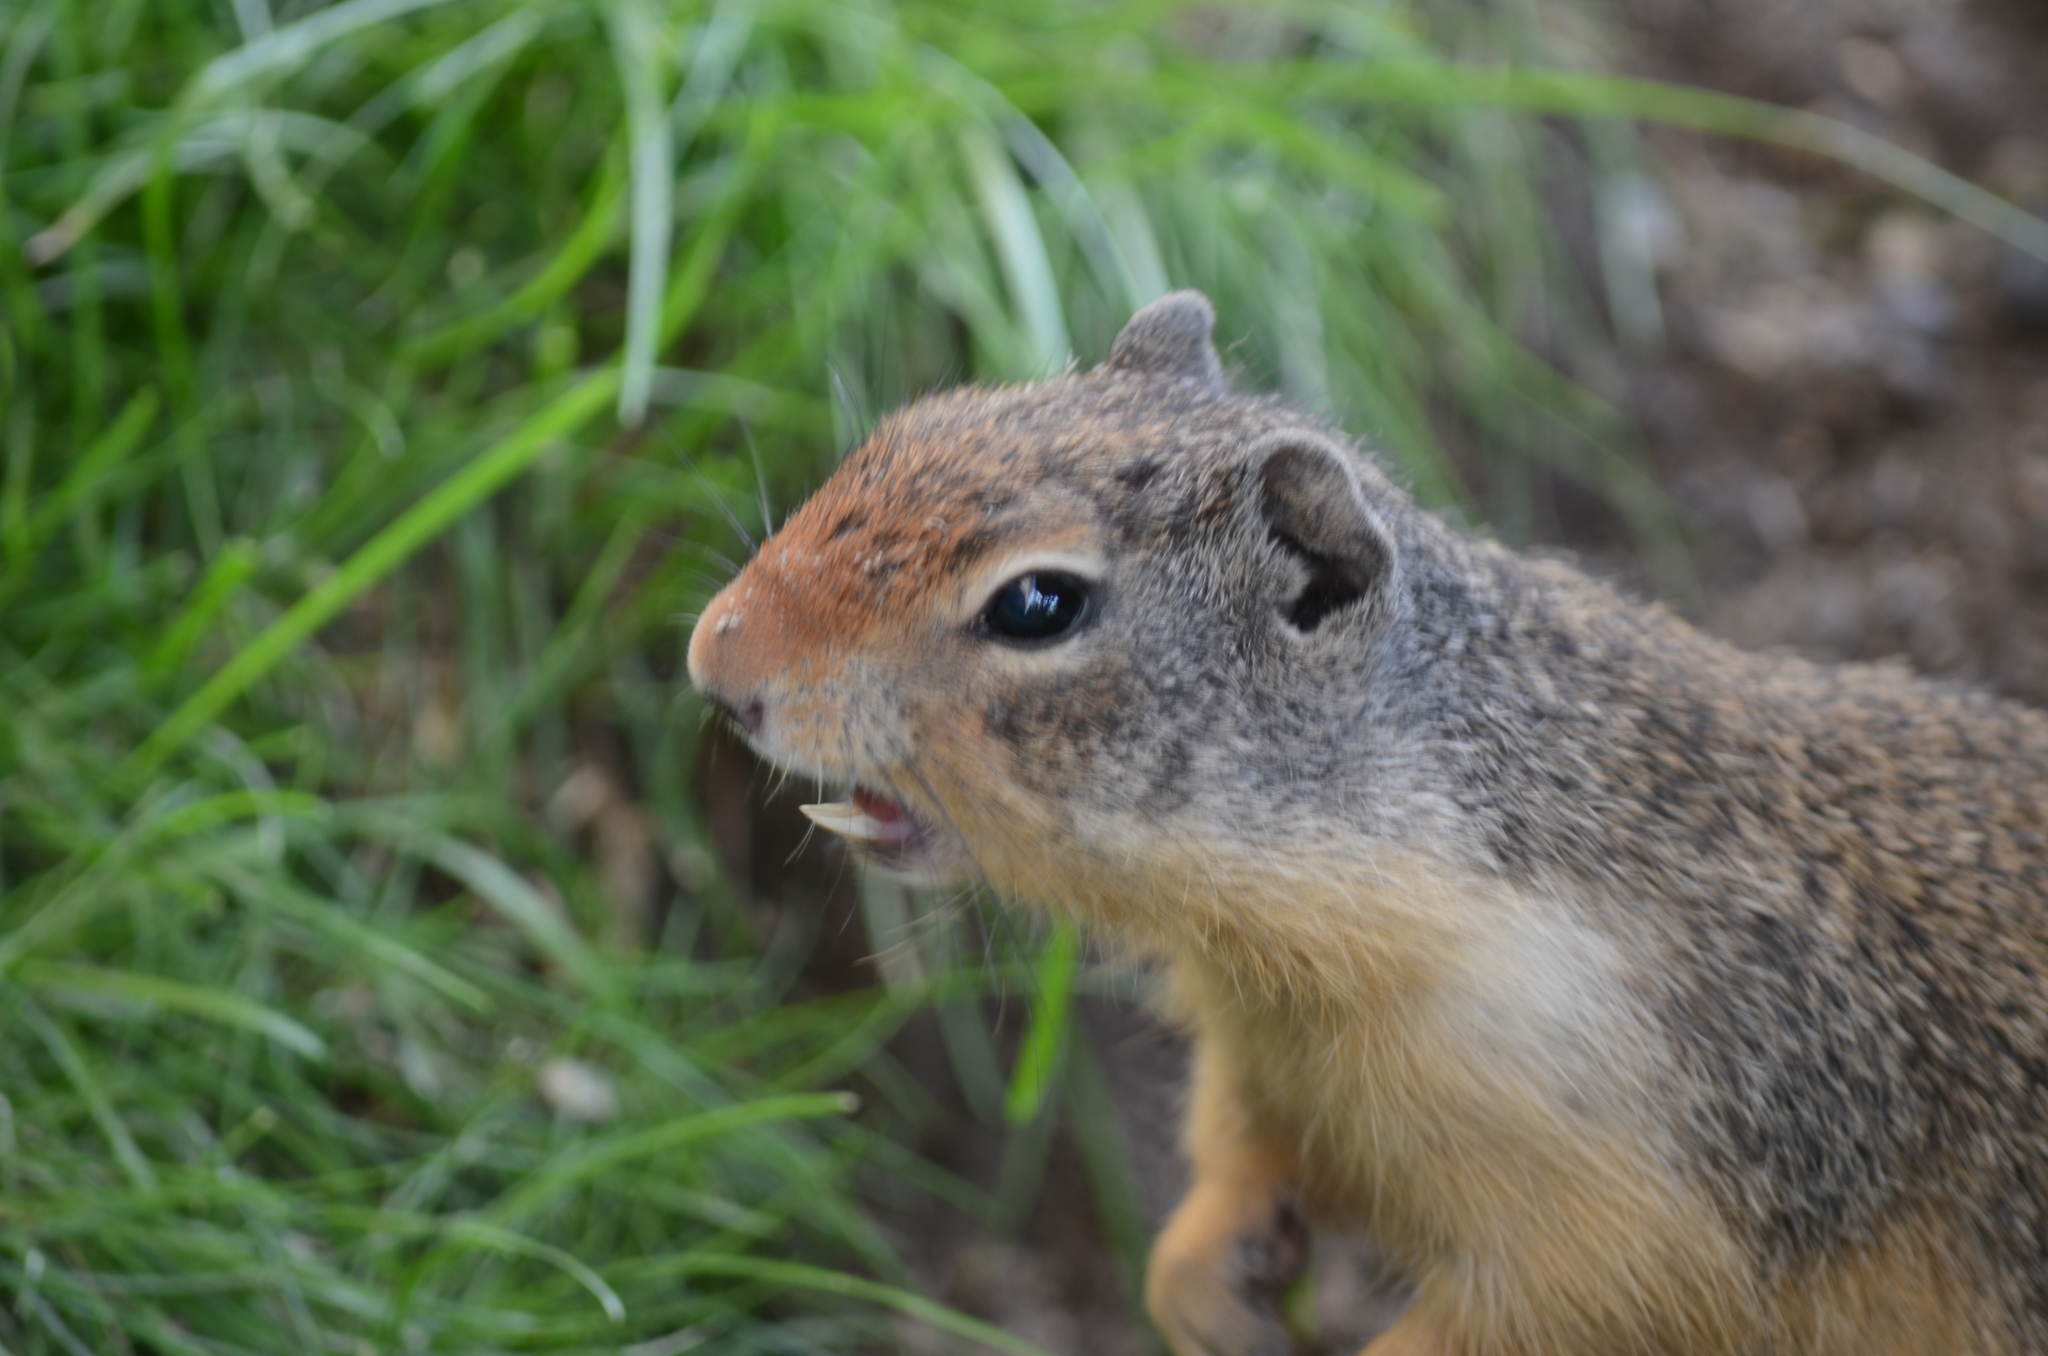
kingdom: Animalia
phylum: Chordata
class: Mammalia
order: Rodentia
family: Sciuridae
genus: Urocitellus
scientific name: Urocitellus columbianus
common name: Columbian ground squirrel
